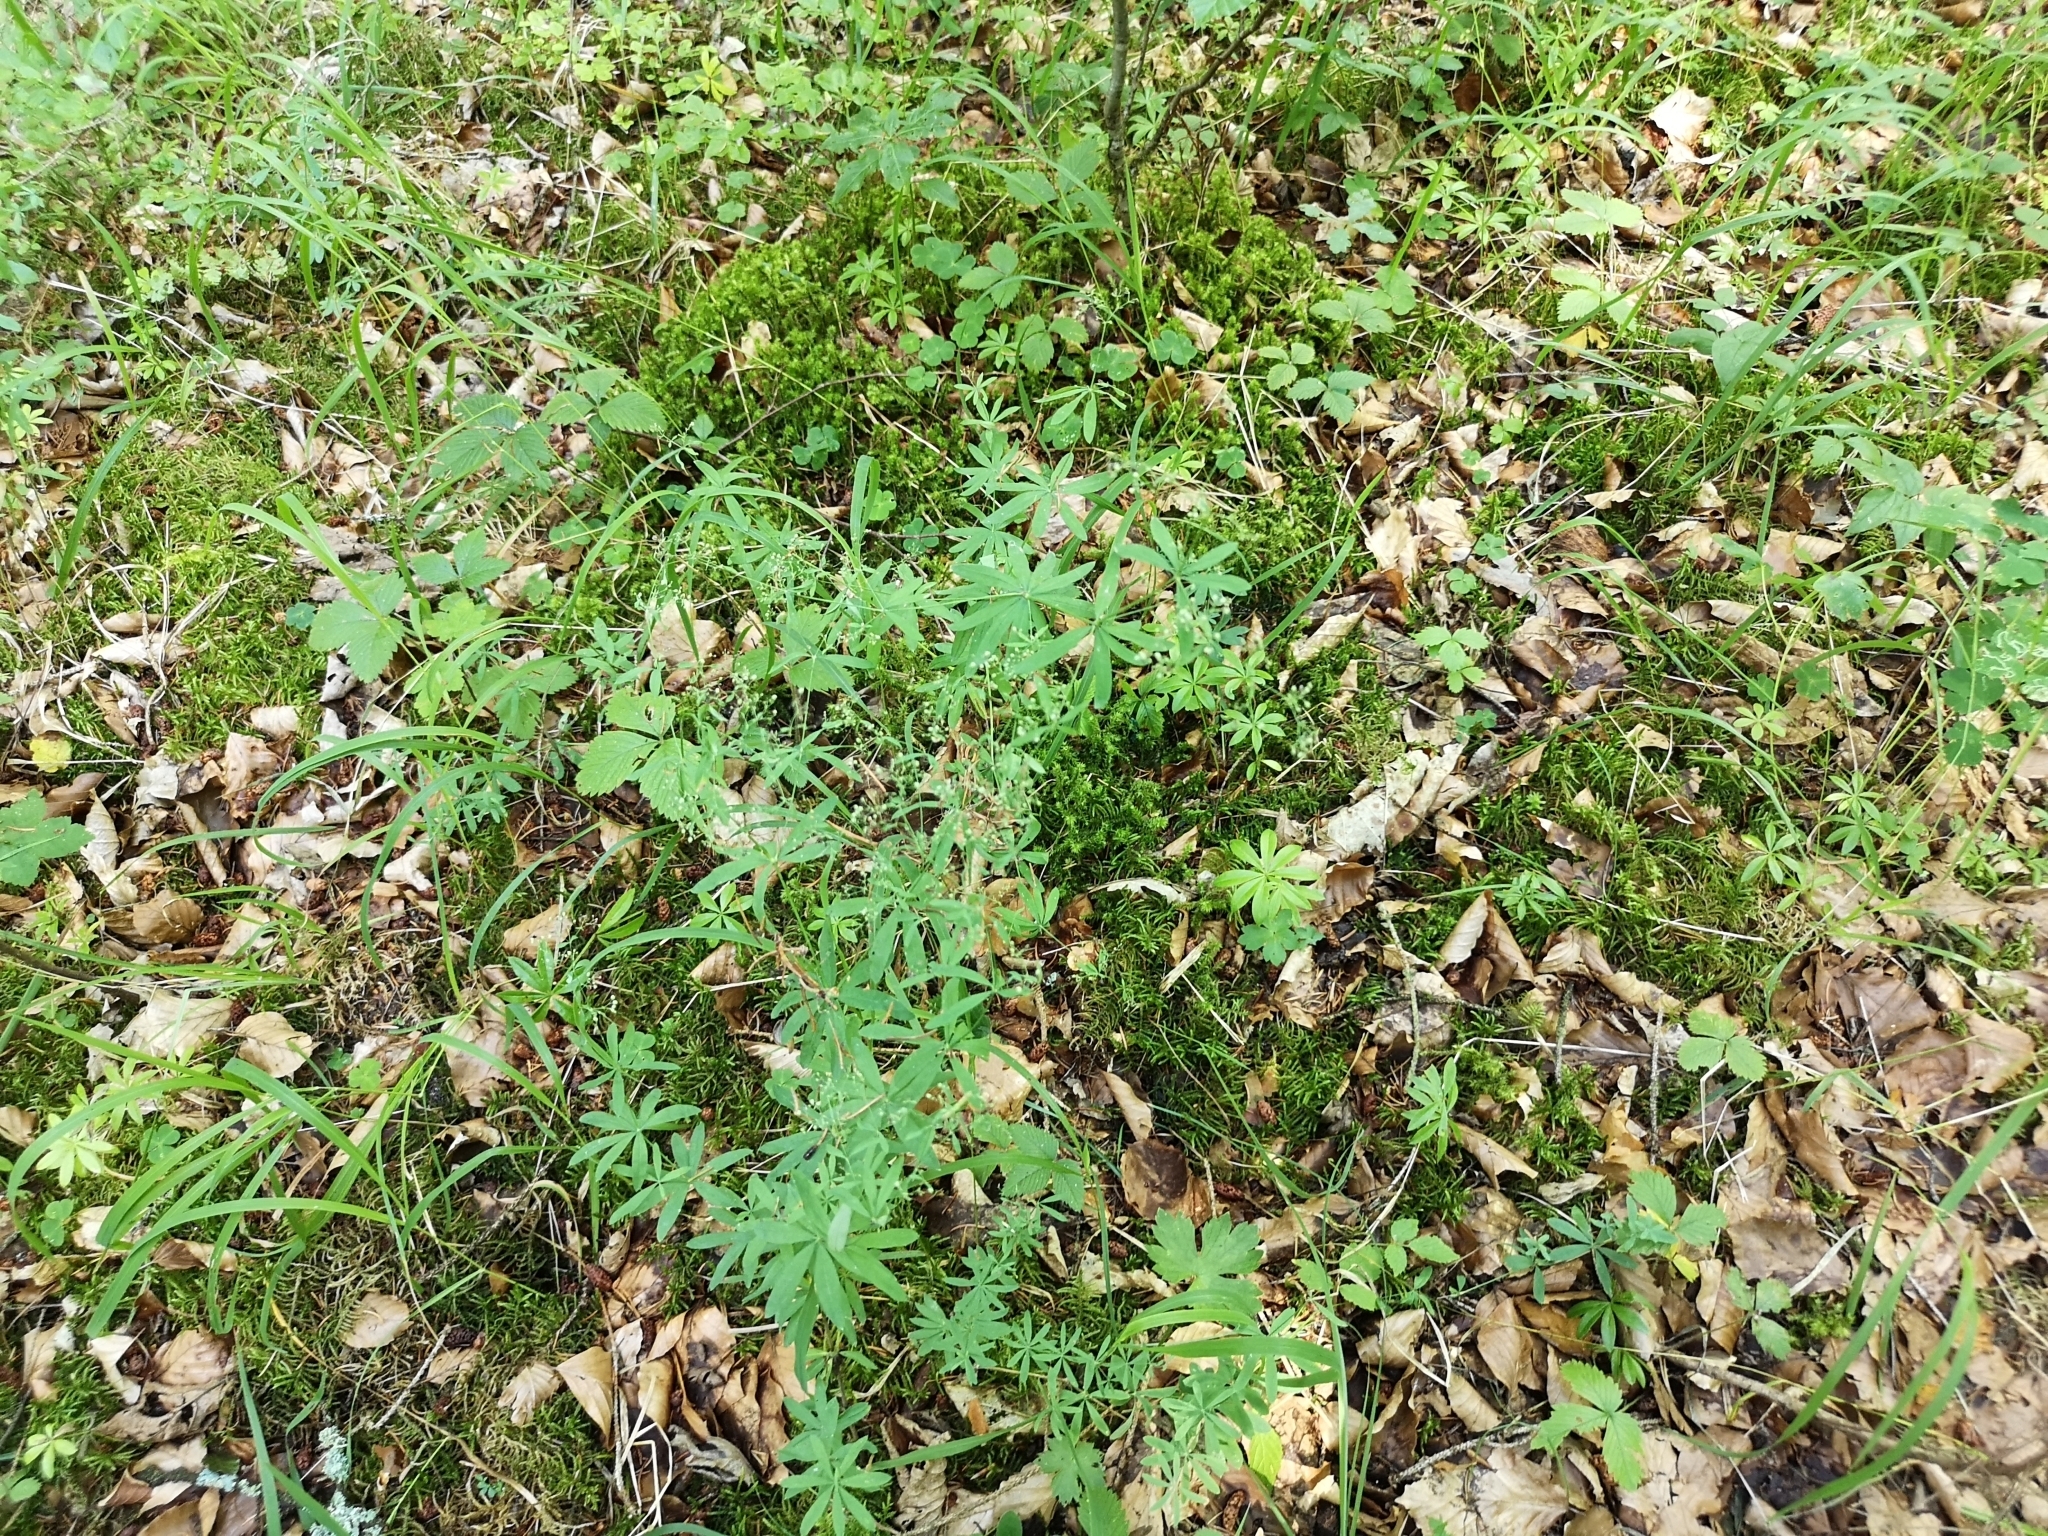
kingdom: Plantae
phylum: Tracheophyta
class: Magnoliopsida
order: Gentianales
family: Rubiaceae
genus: Galium
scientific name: Galium sylvaticum
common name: Wood bedstraw
